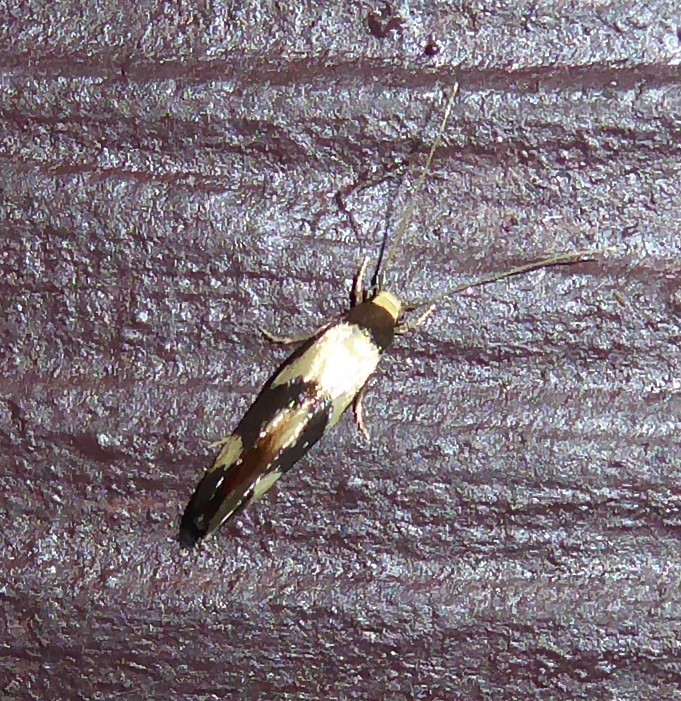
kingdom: Animalia
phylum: Arthropoda
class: Insecta
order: Lepidoptera
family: Tineidae
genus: Opogona
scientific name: Opogona comptella
